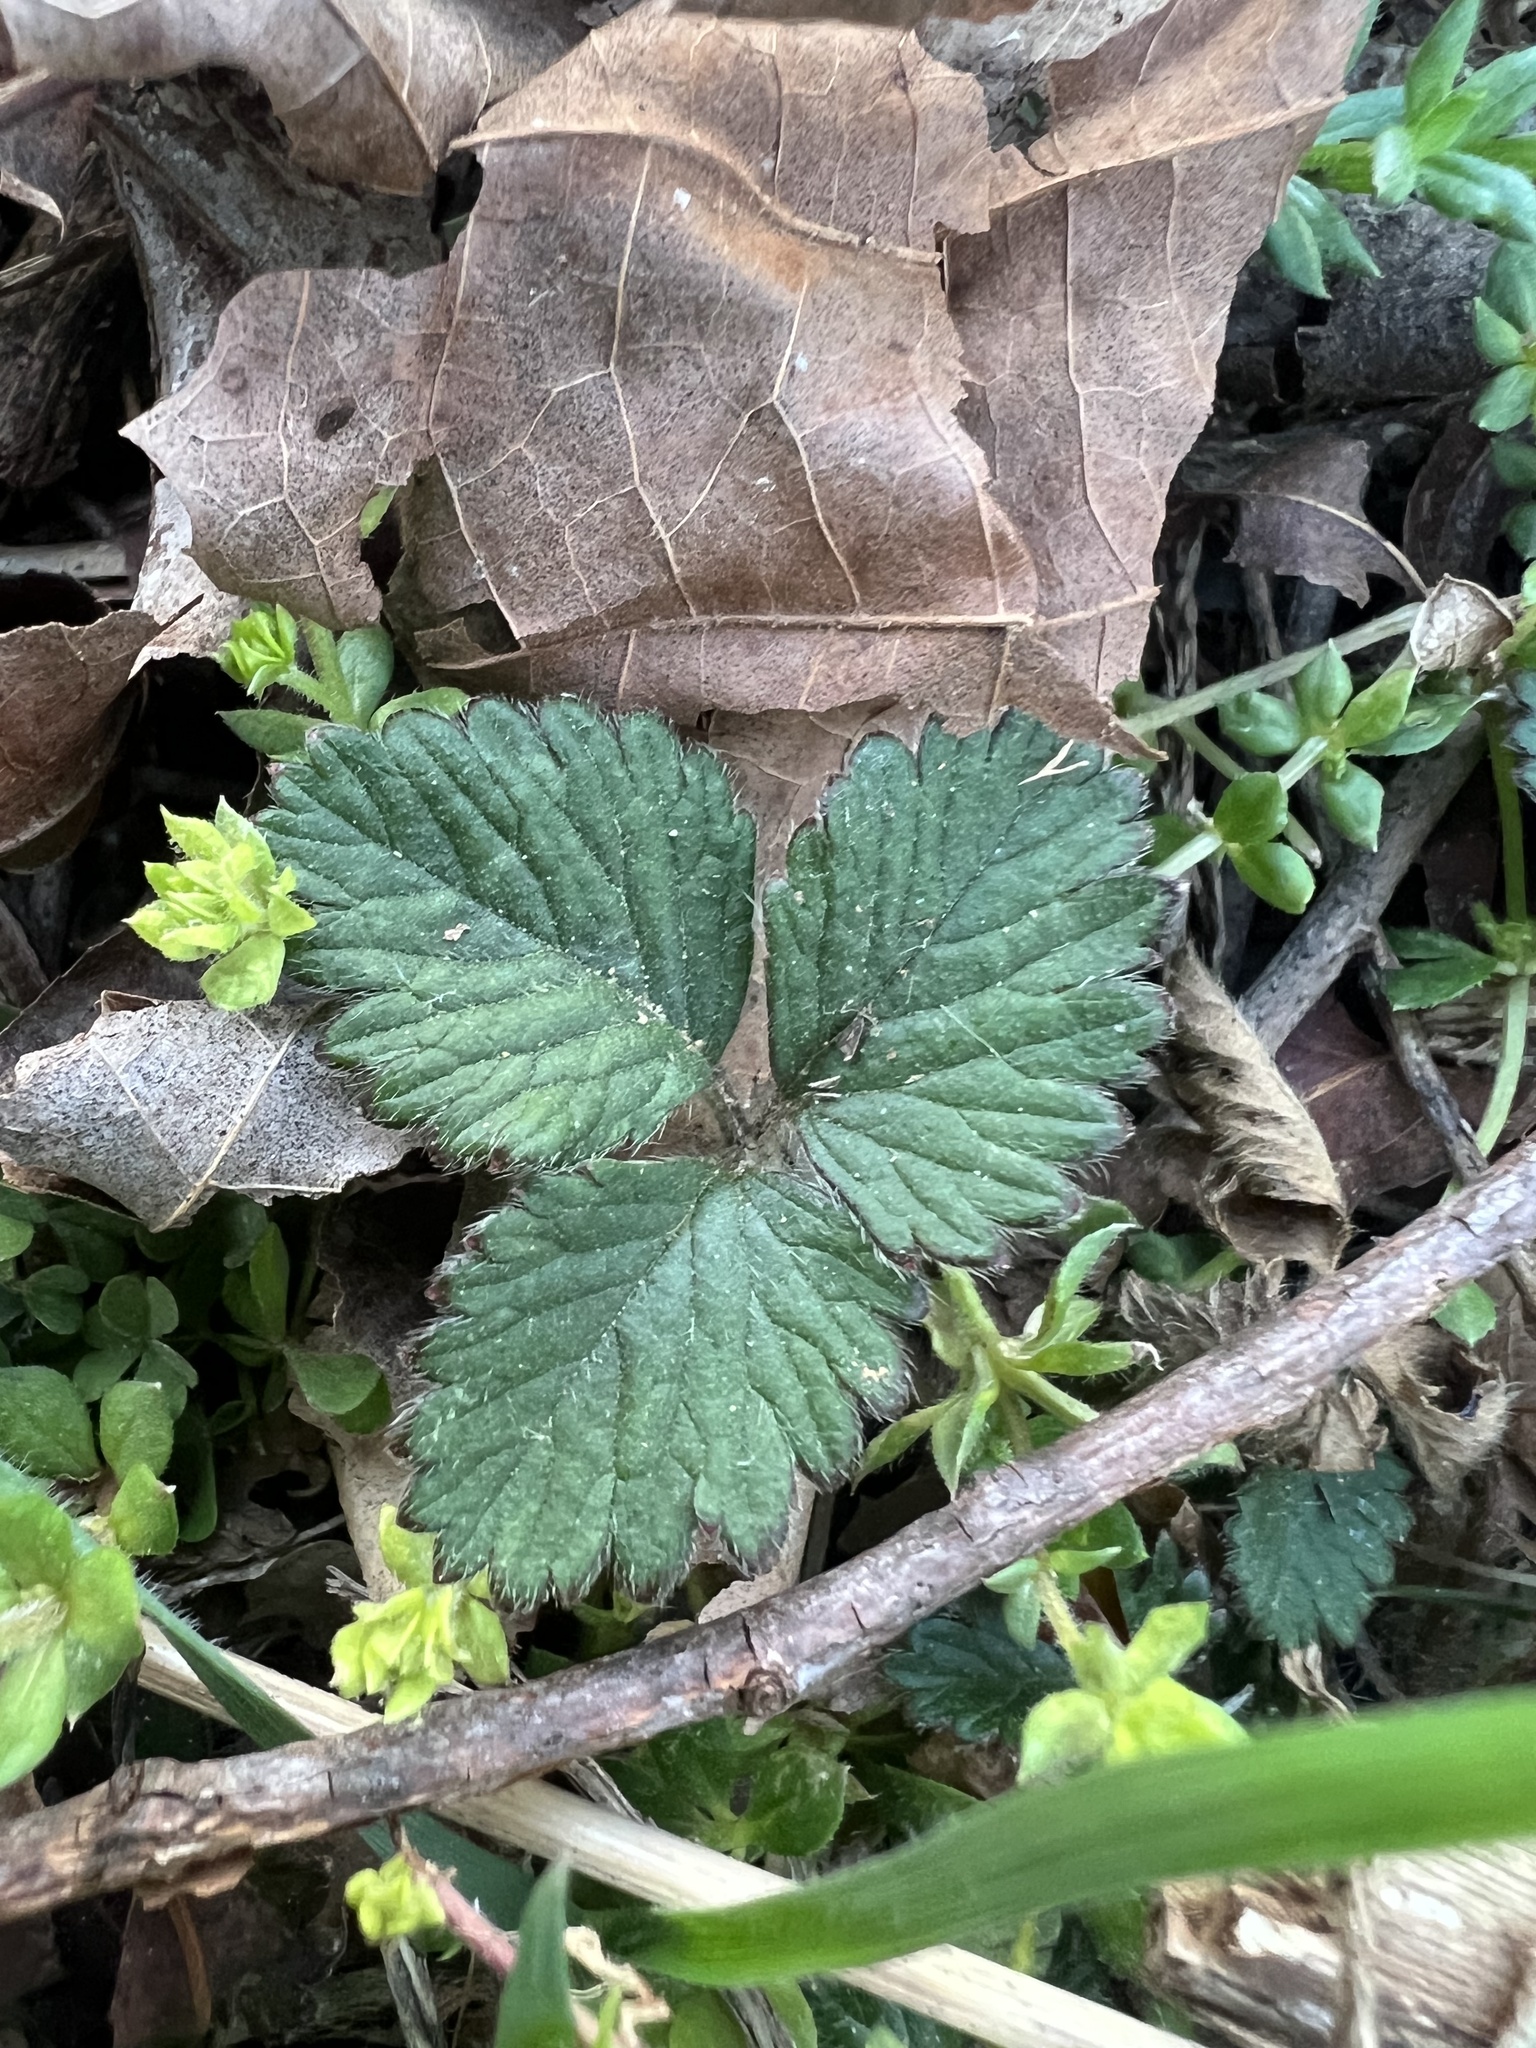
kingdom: Plantae
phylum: Tracheophyta
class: Magnoliopsida
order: Rosales
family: Rosaceae
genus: Potentilla
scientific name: Potentilla indica
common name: Yellow-flowered strawberry
